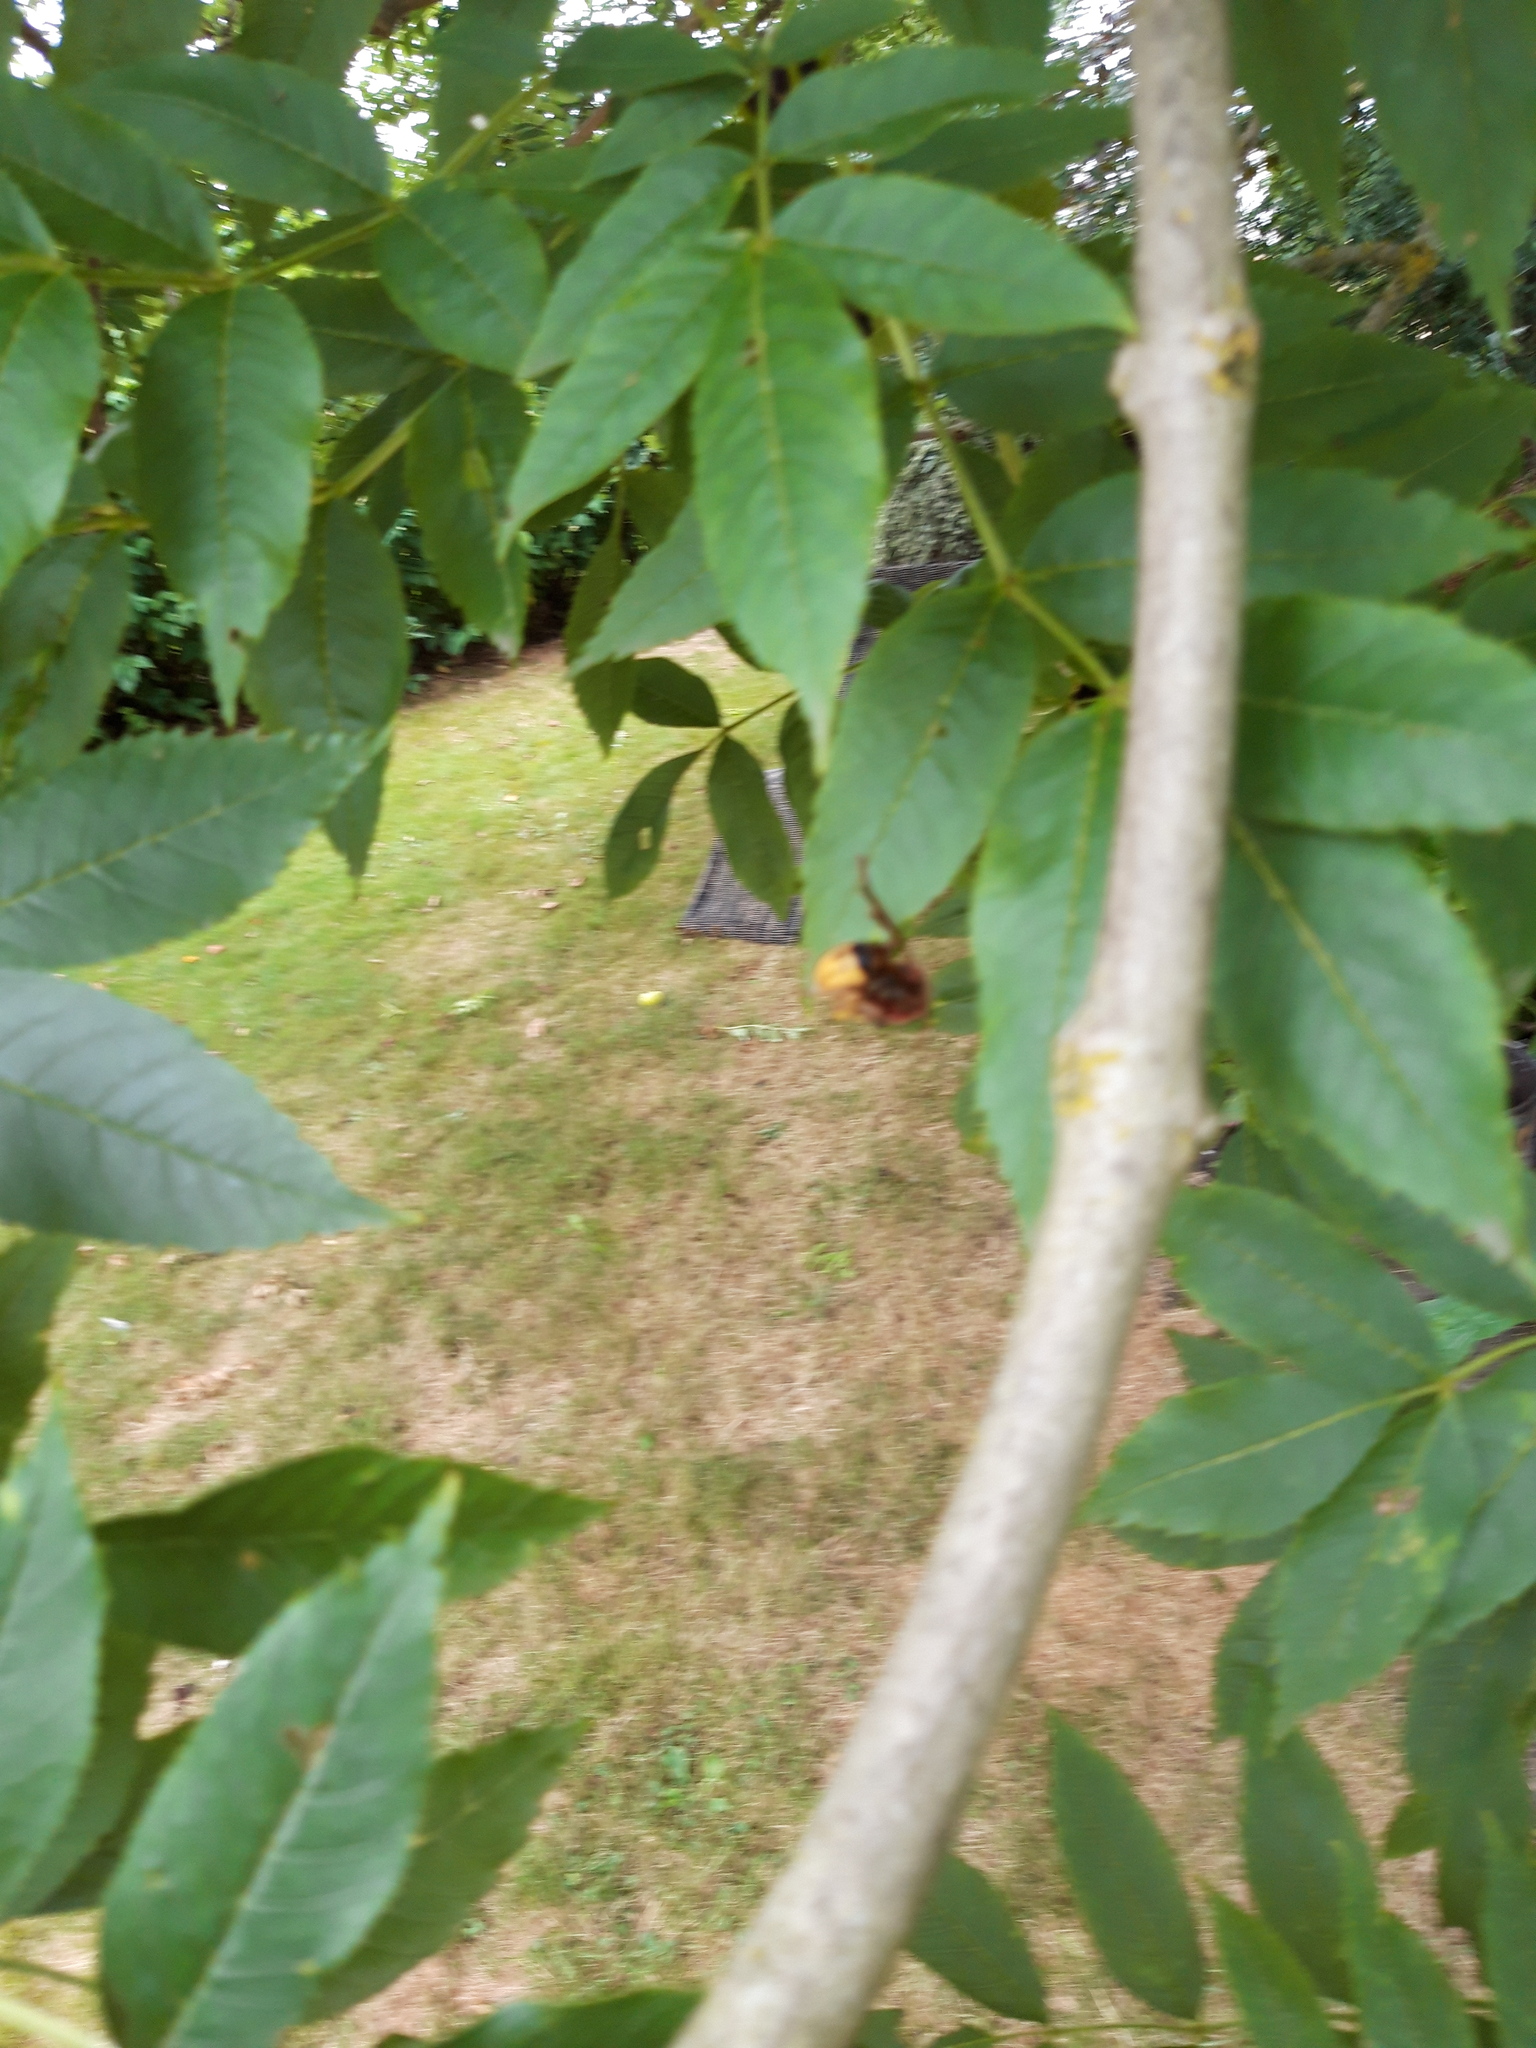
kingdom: Animalia
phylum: Arthropoda
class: Insecta
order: Hymenoptera
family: Vespidae
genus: Vespa
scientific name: Vespa crabro
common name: Hornet
